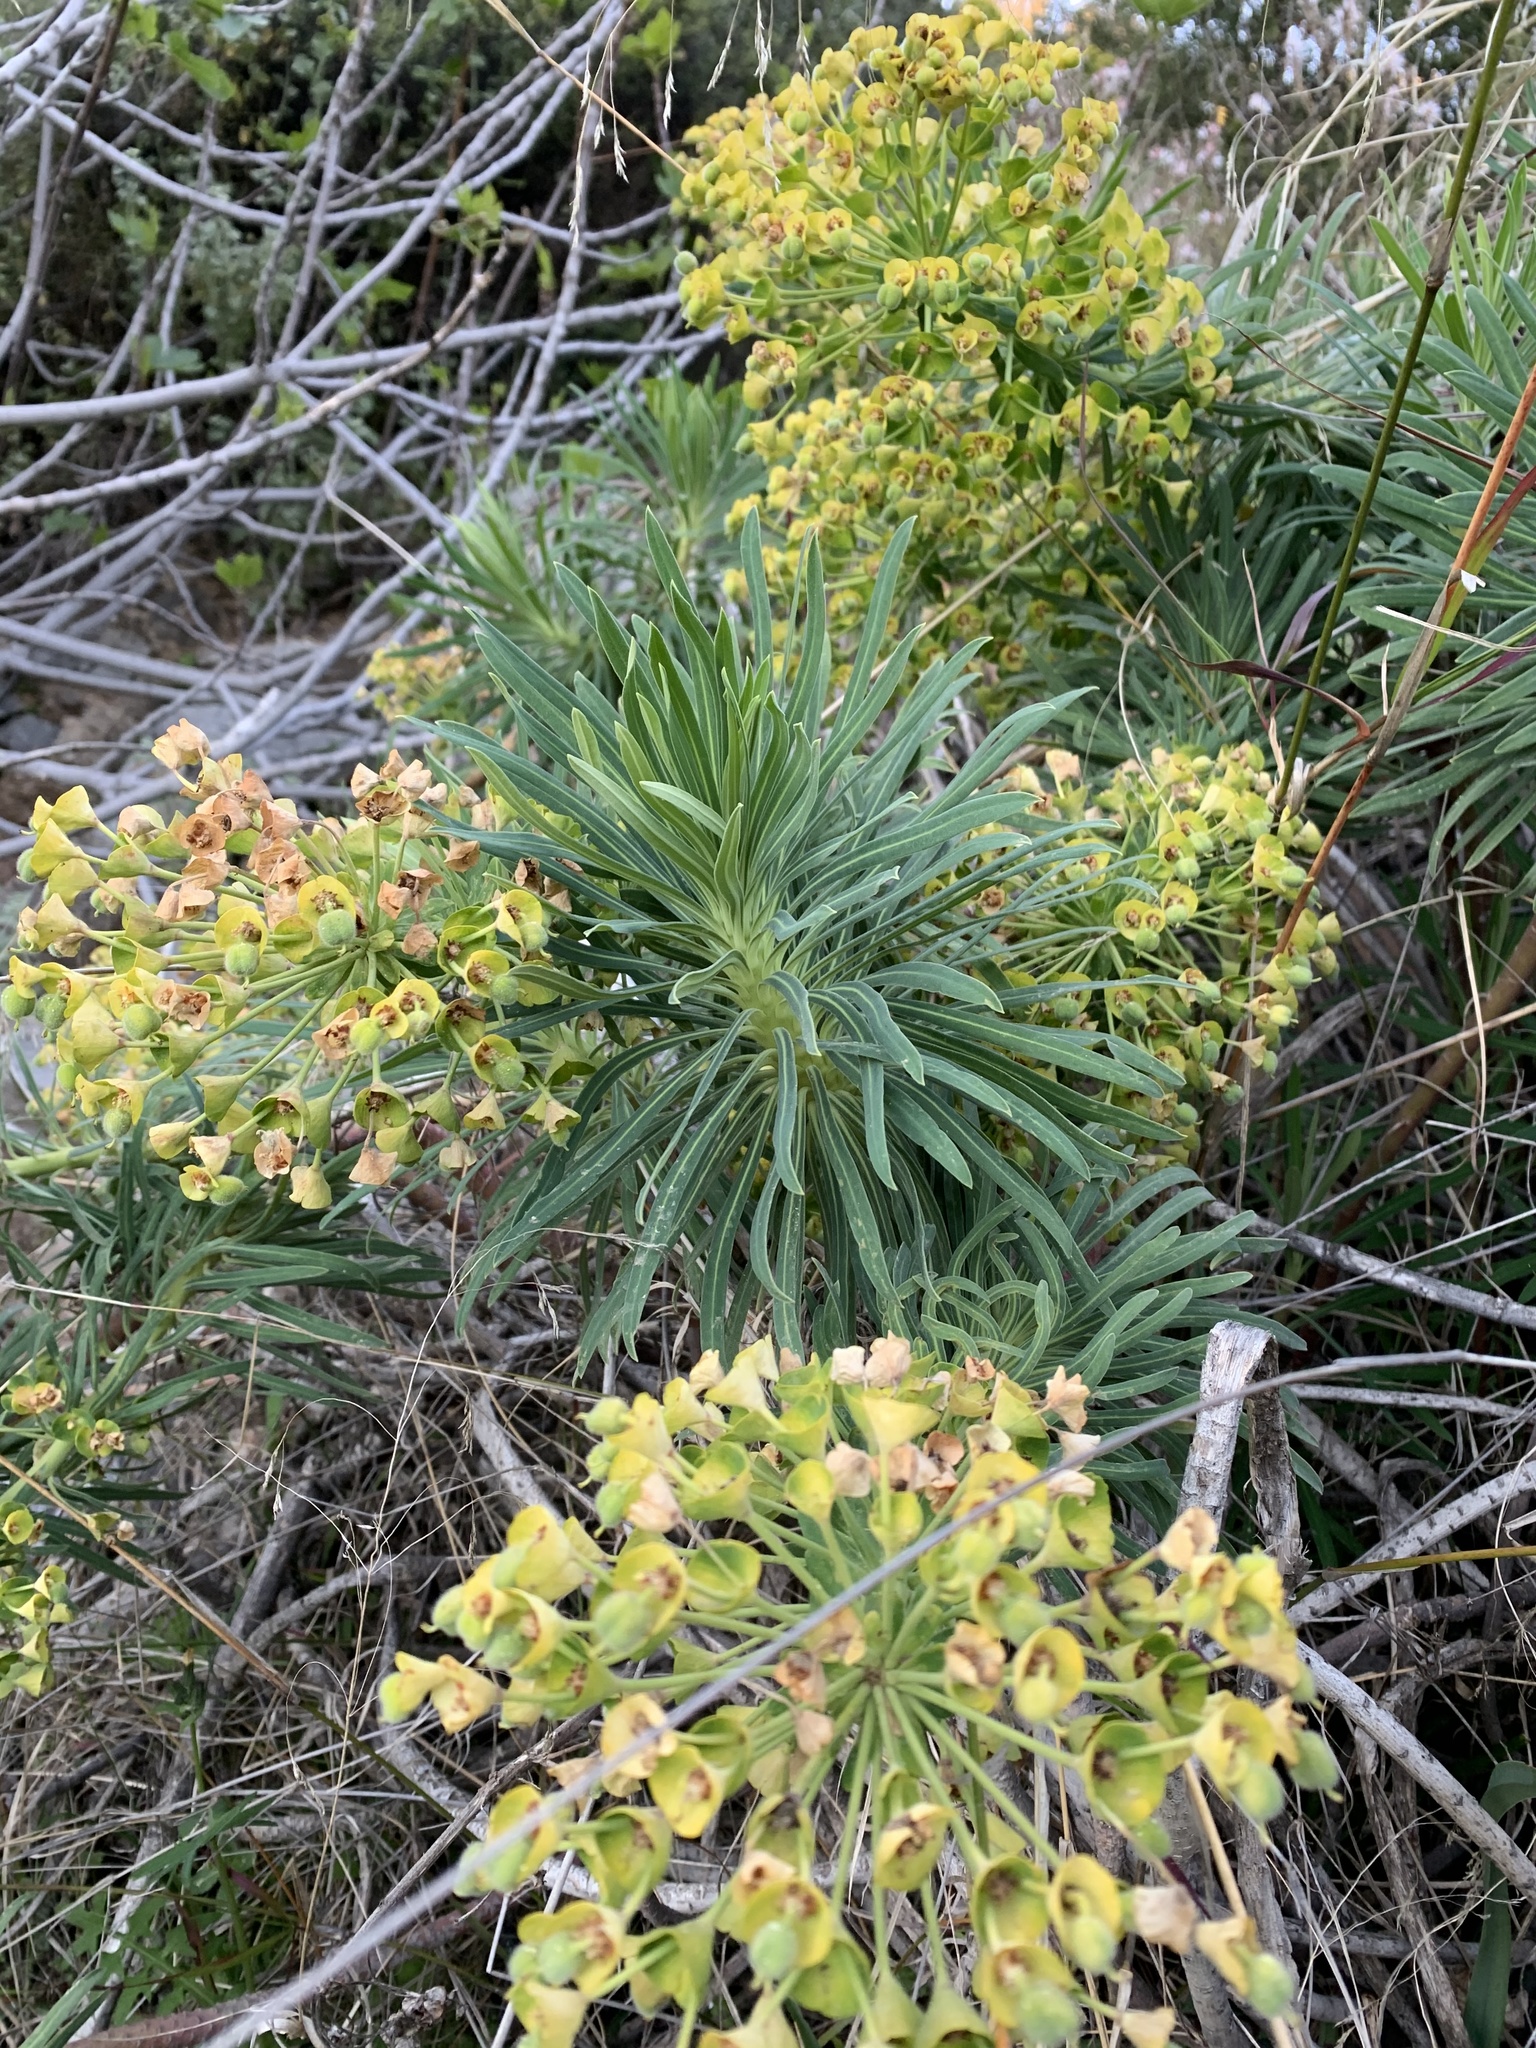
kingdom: Plantae
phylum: Tracheophyta
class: Magnoliopsida
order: Malpighiales
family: Euphorbiaceae
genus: Euphorbia
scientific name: Euphorbia characias
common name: Mediterranean spurge
